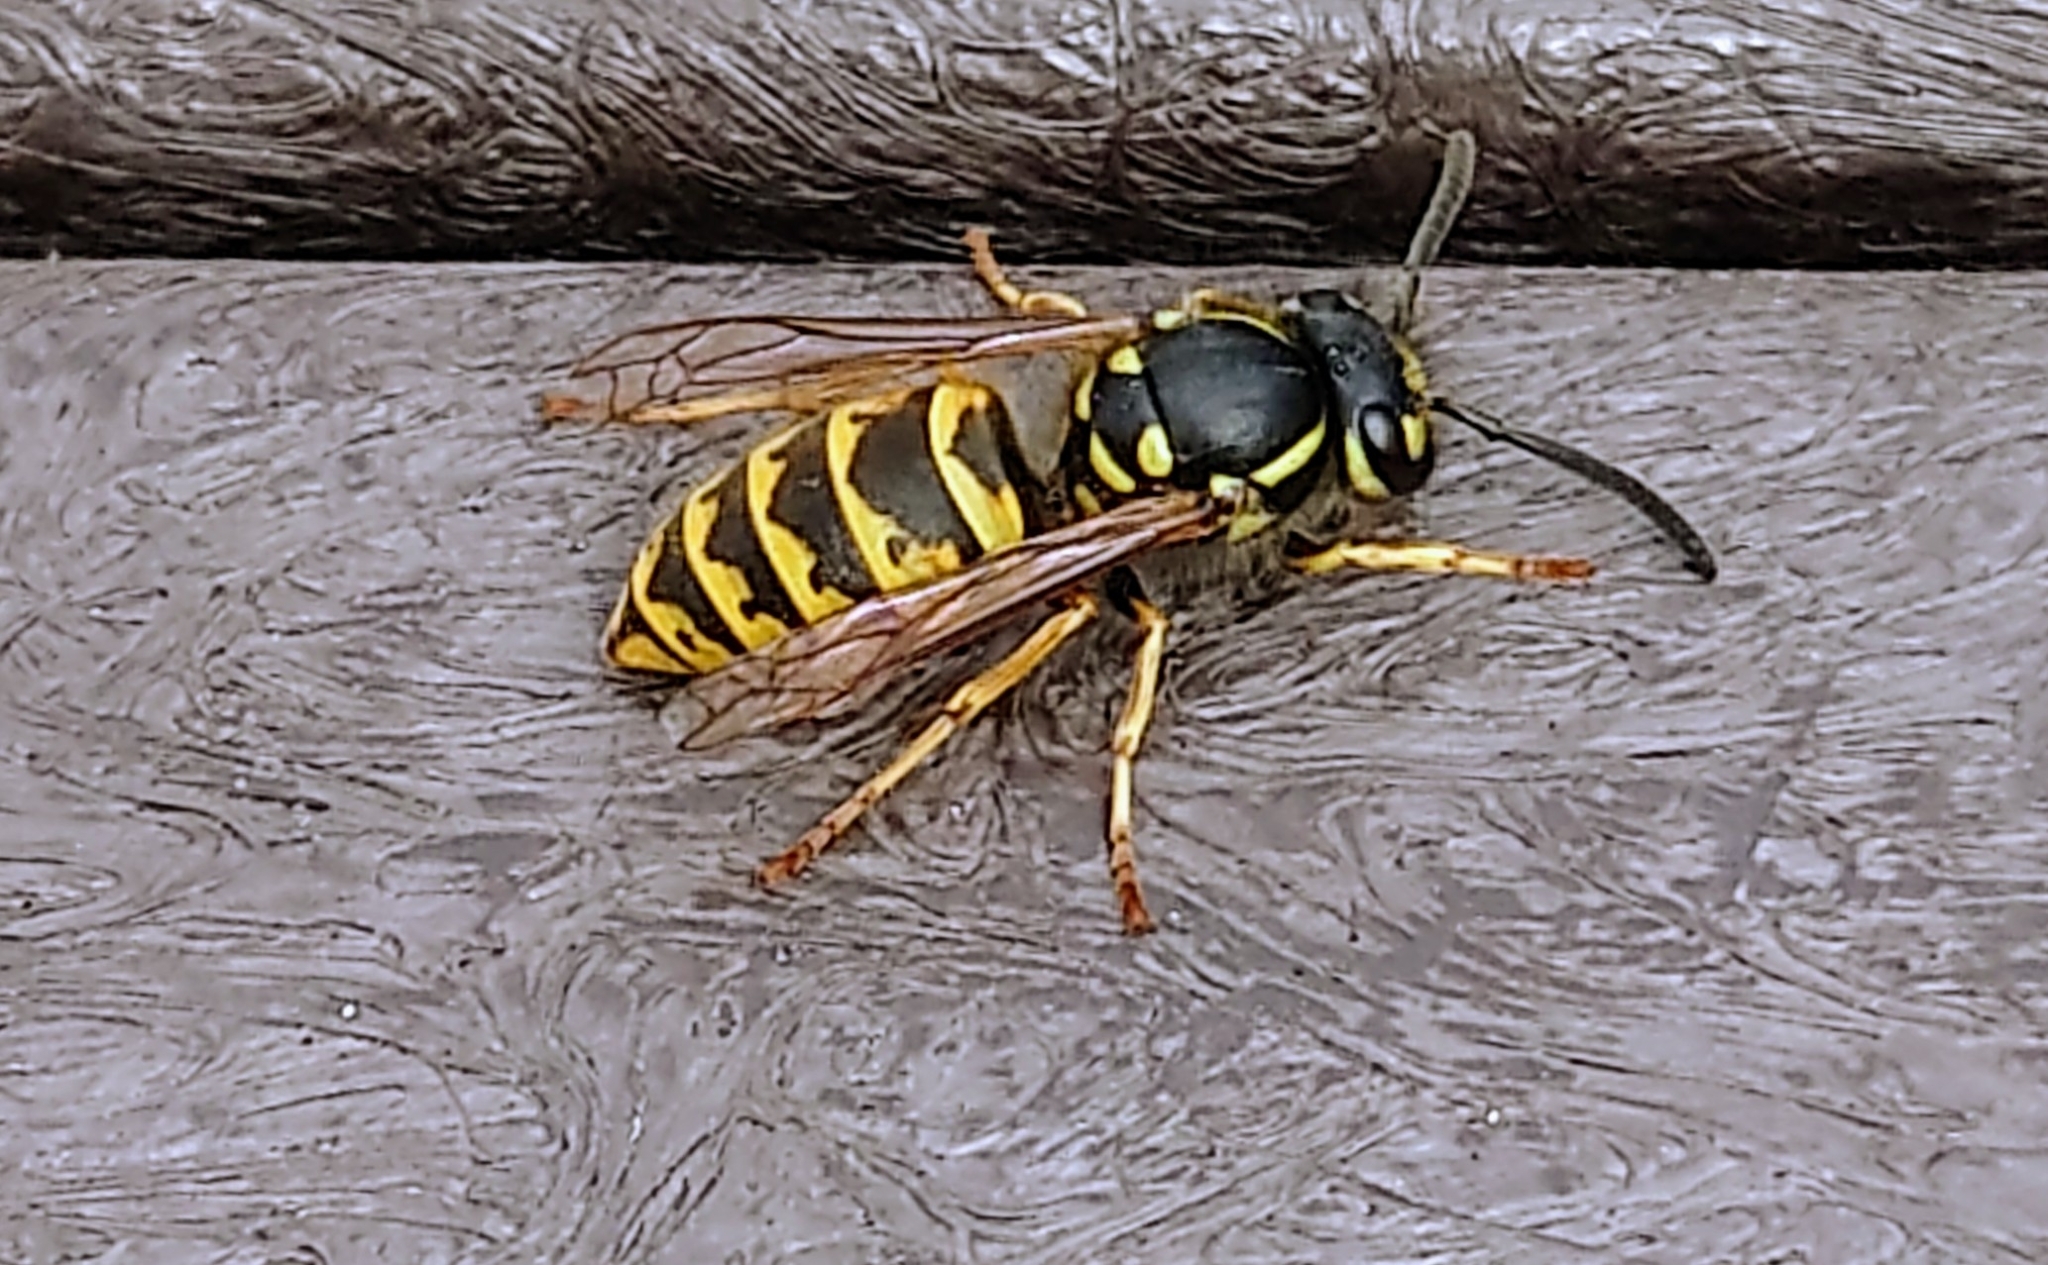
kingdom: Animalia
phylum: Arthropoda
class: Insecta
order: Hymenoptera
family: Vespidae
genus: Vespula
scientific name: Vespula vulgaris
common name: Common wasp
